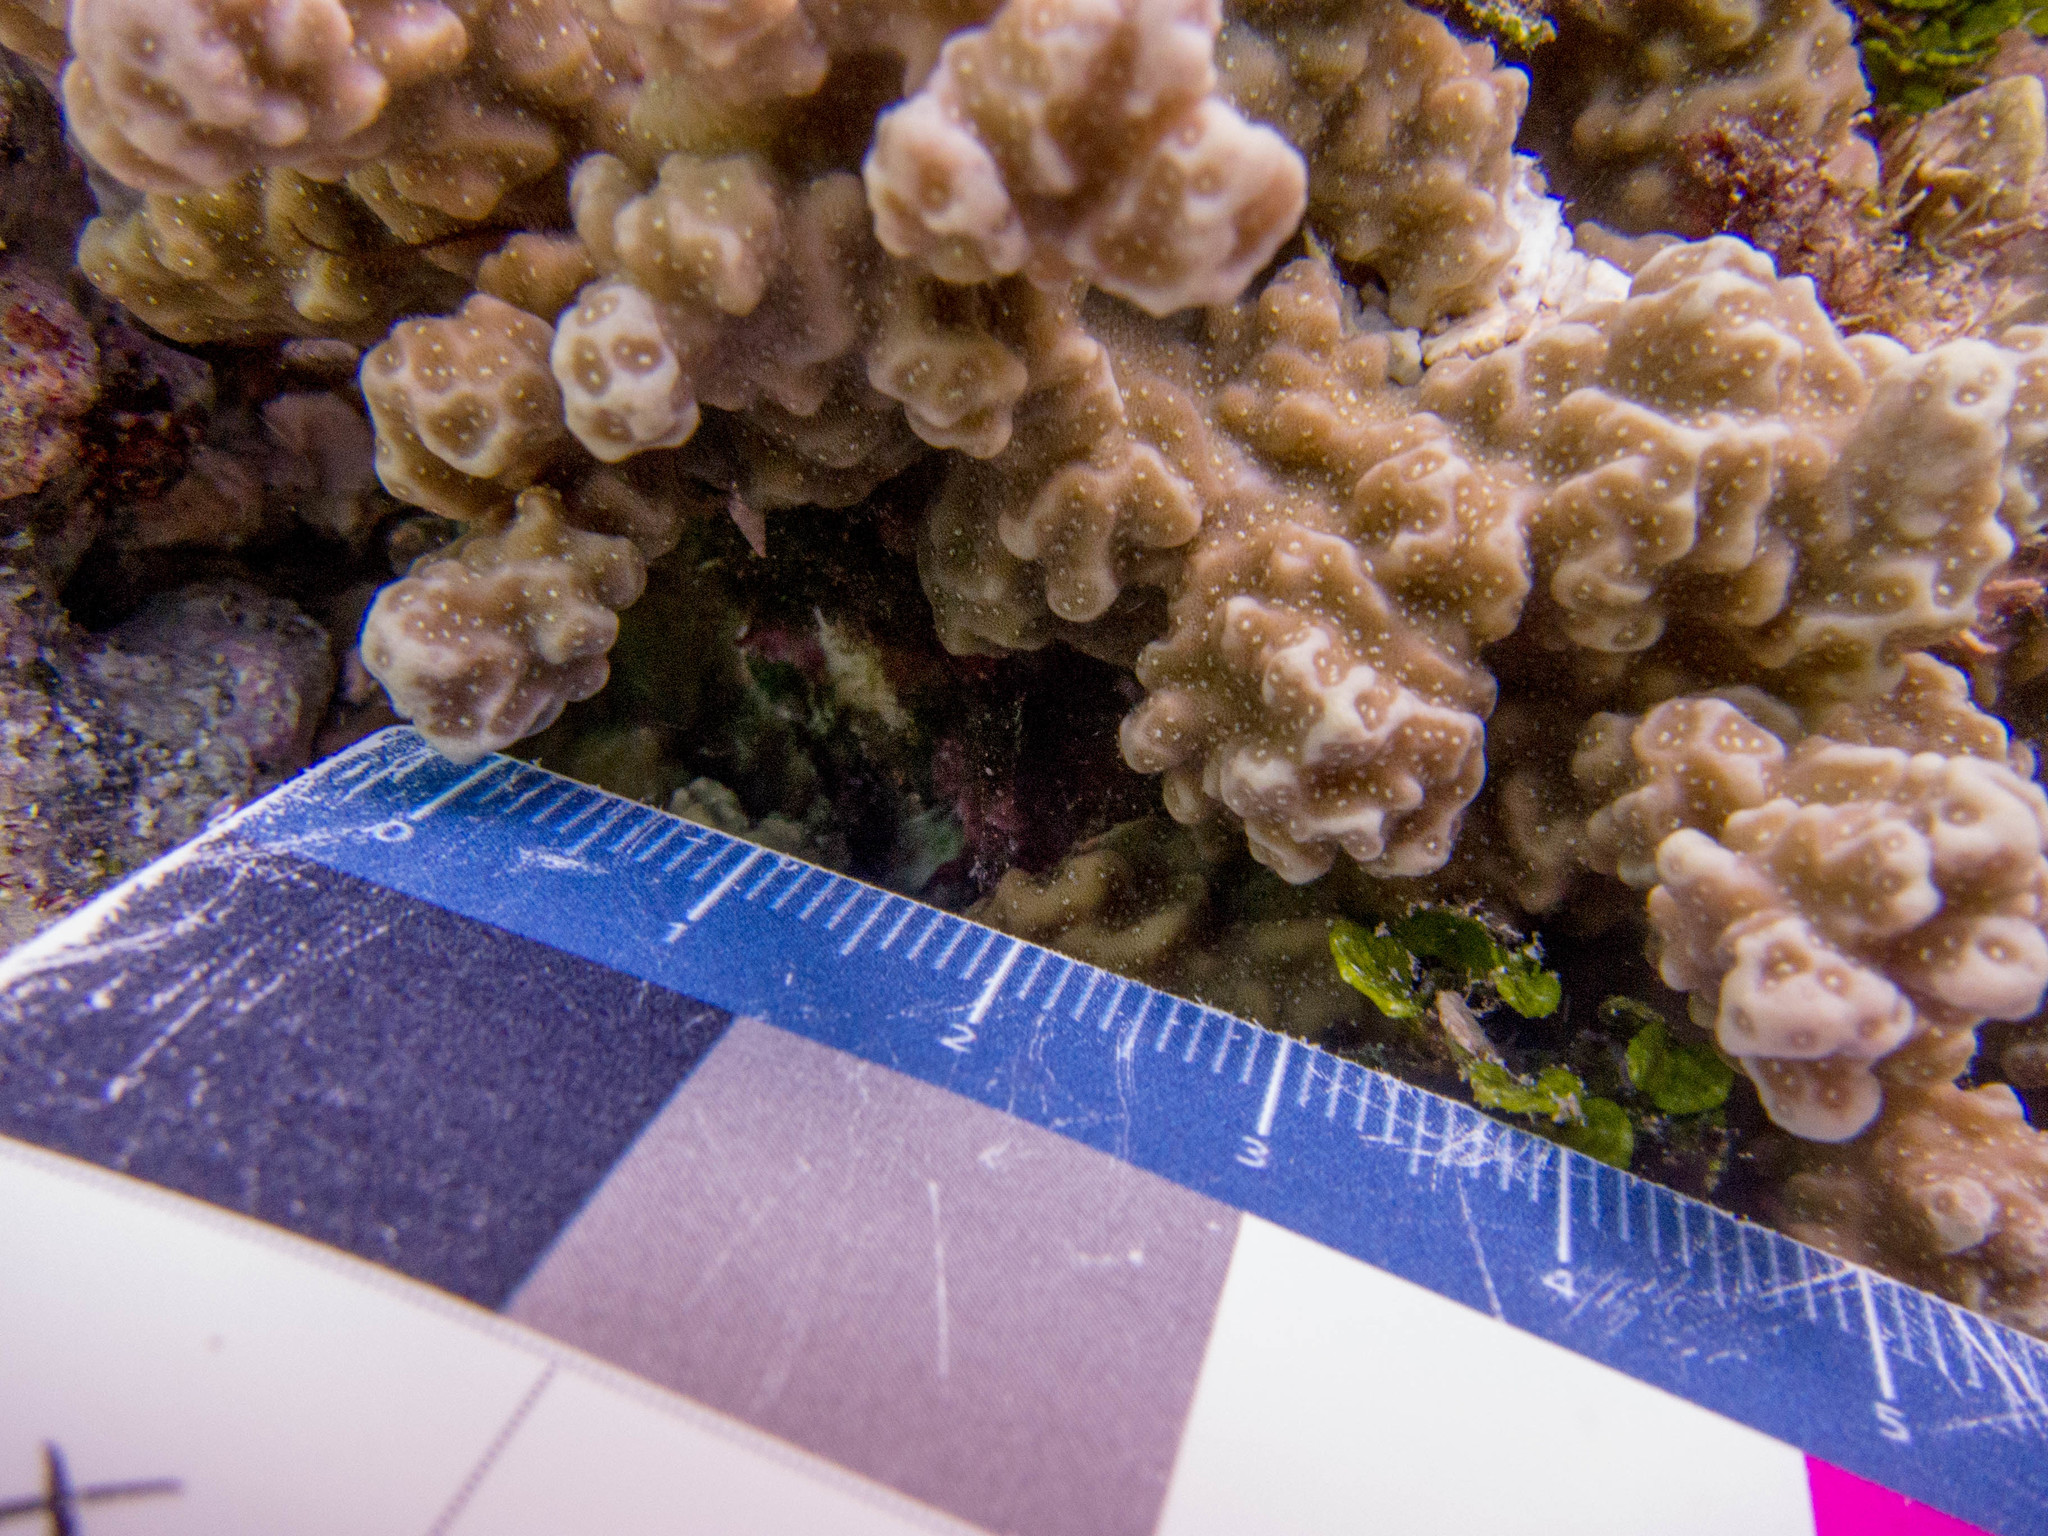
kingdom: Animalia
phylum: Cnidaria
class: Anthozoa
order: Scleractinia
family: Poritidae
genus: Porites
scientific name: Porites rus
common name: Hump coral
